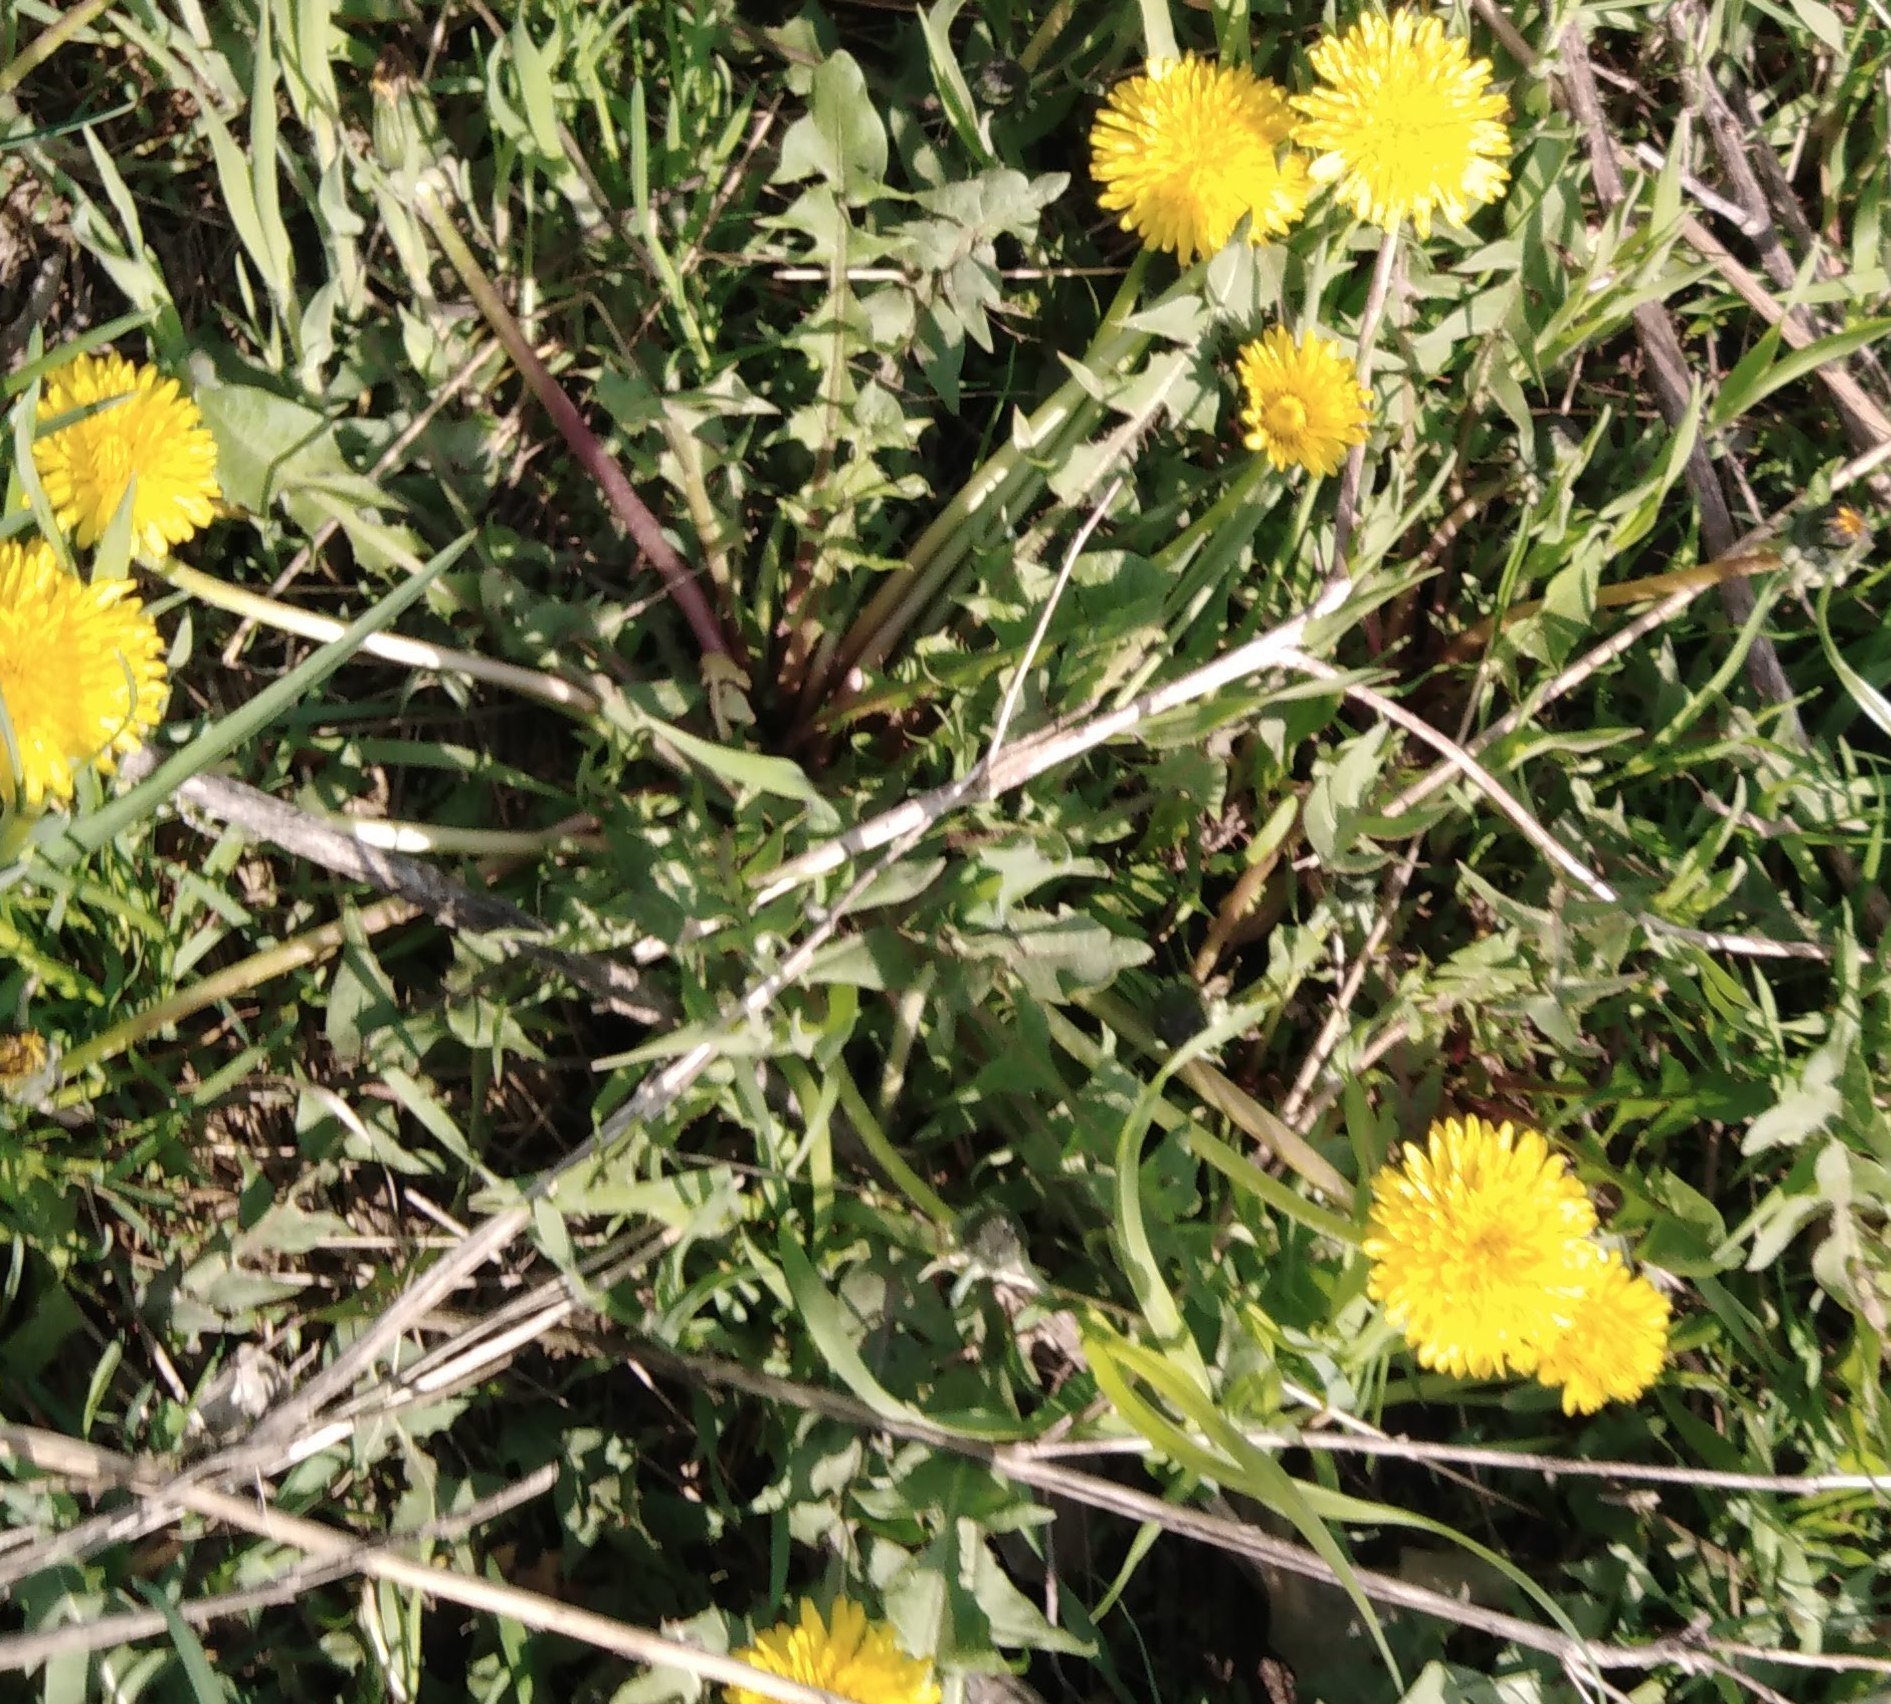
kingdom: Plantae
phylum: Tracheophyta
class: Magnoliopsida
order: Asterales
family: Asteraceae
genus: Taraxacum
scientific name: Taraxacum officinale
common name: Common dandelion
